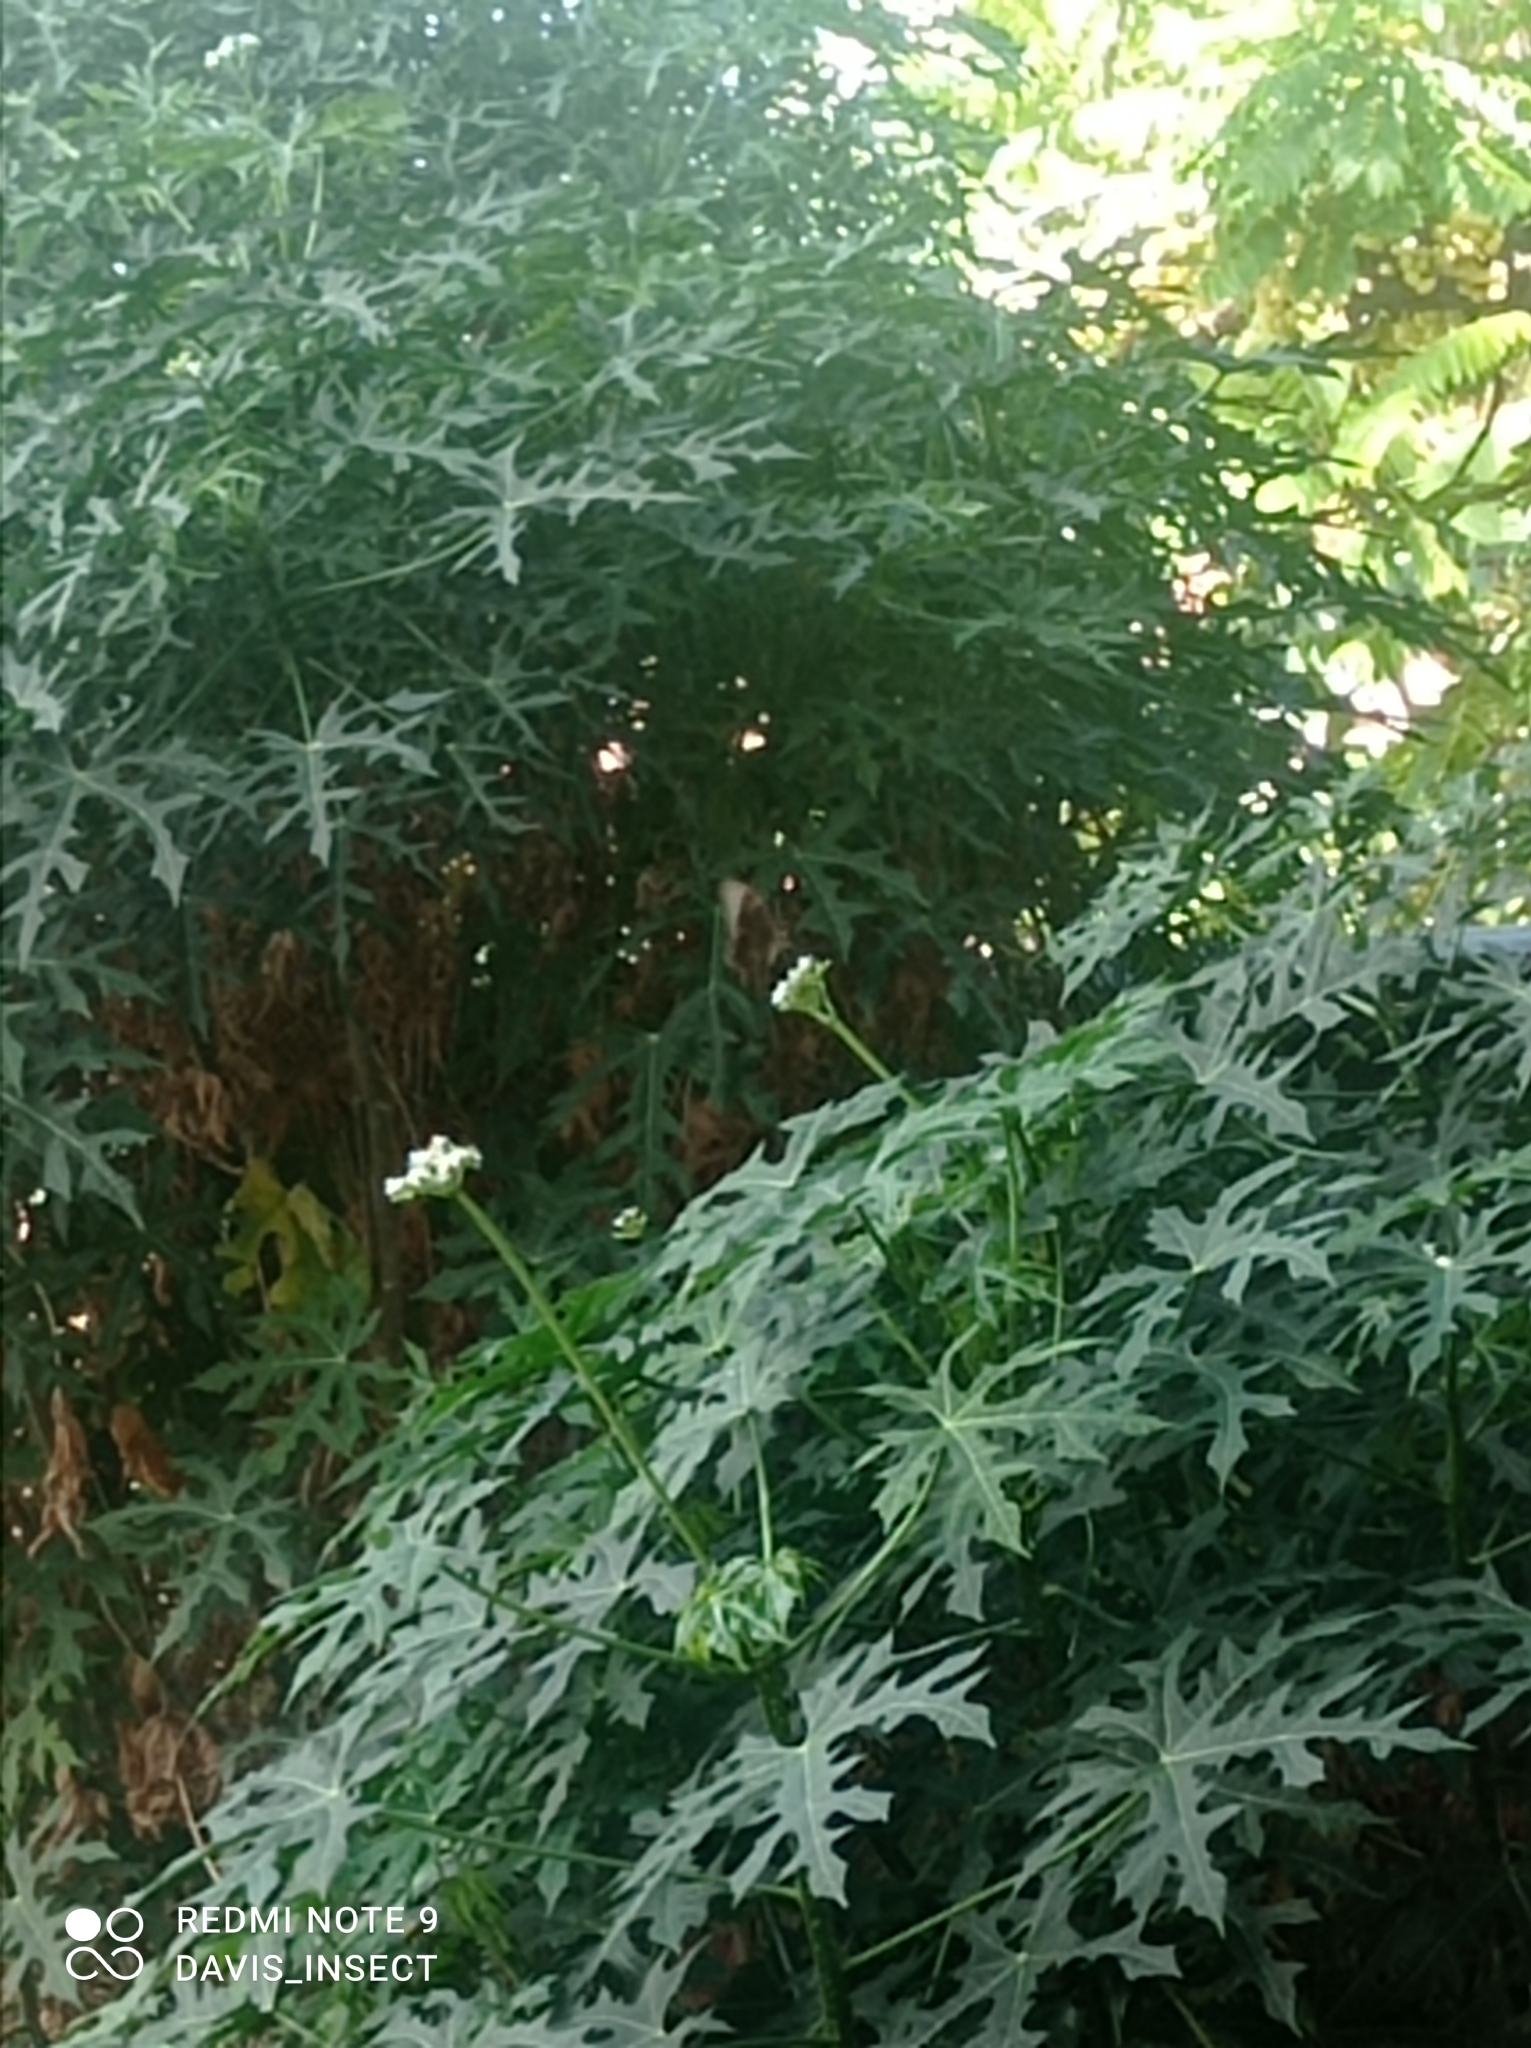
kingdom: Animalia
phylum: Arthropoda
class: Insecta
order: Lepidoptera
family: Papilionidae
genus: Papilio
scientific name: Papilio pericles
